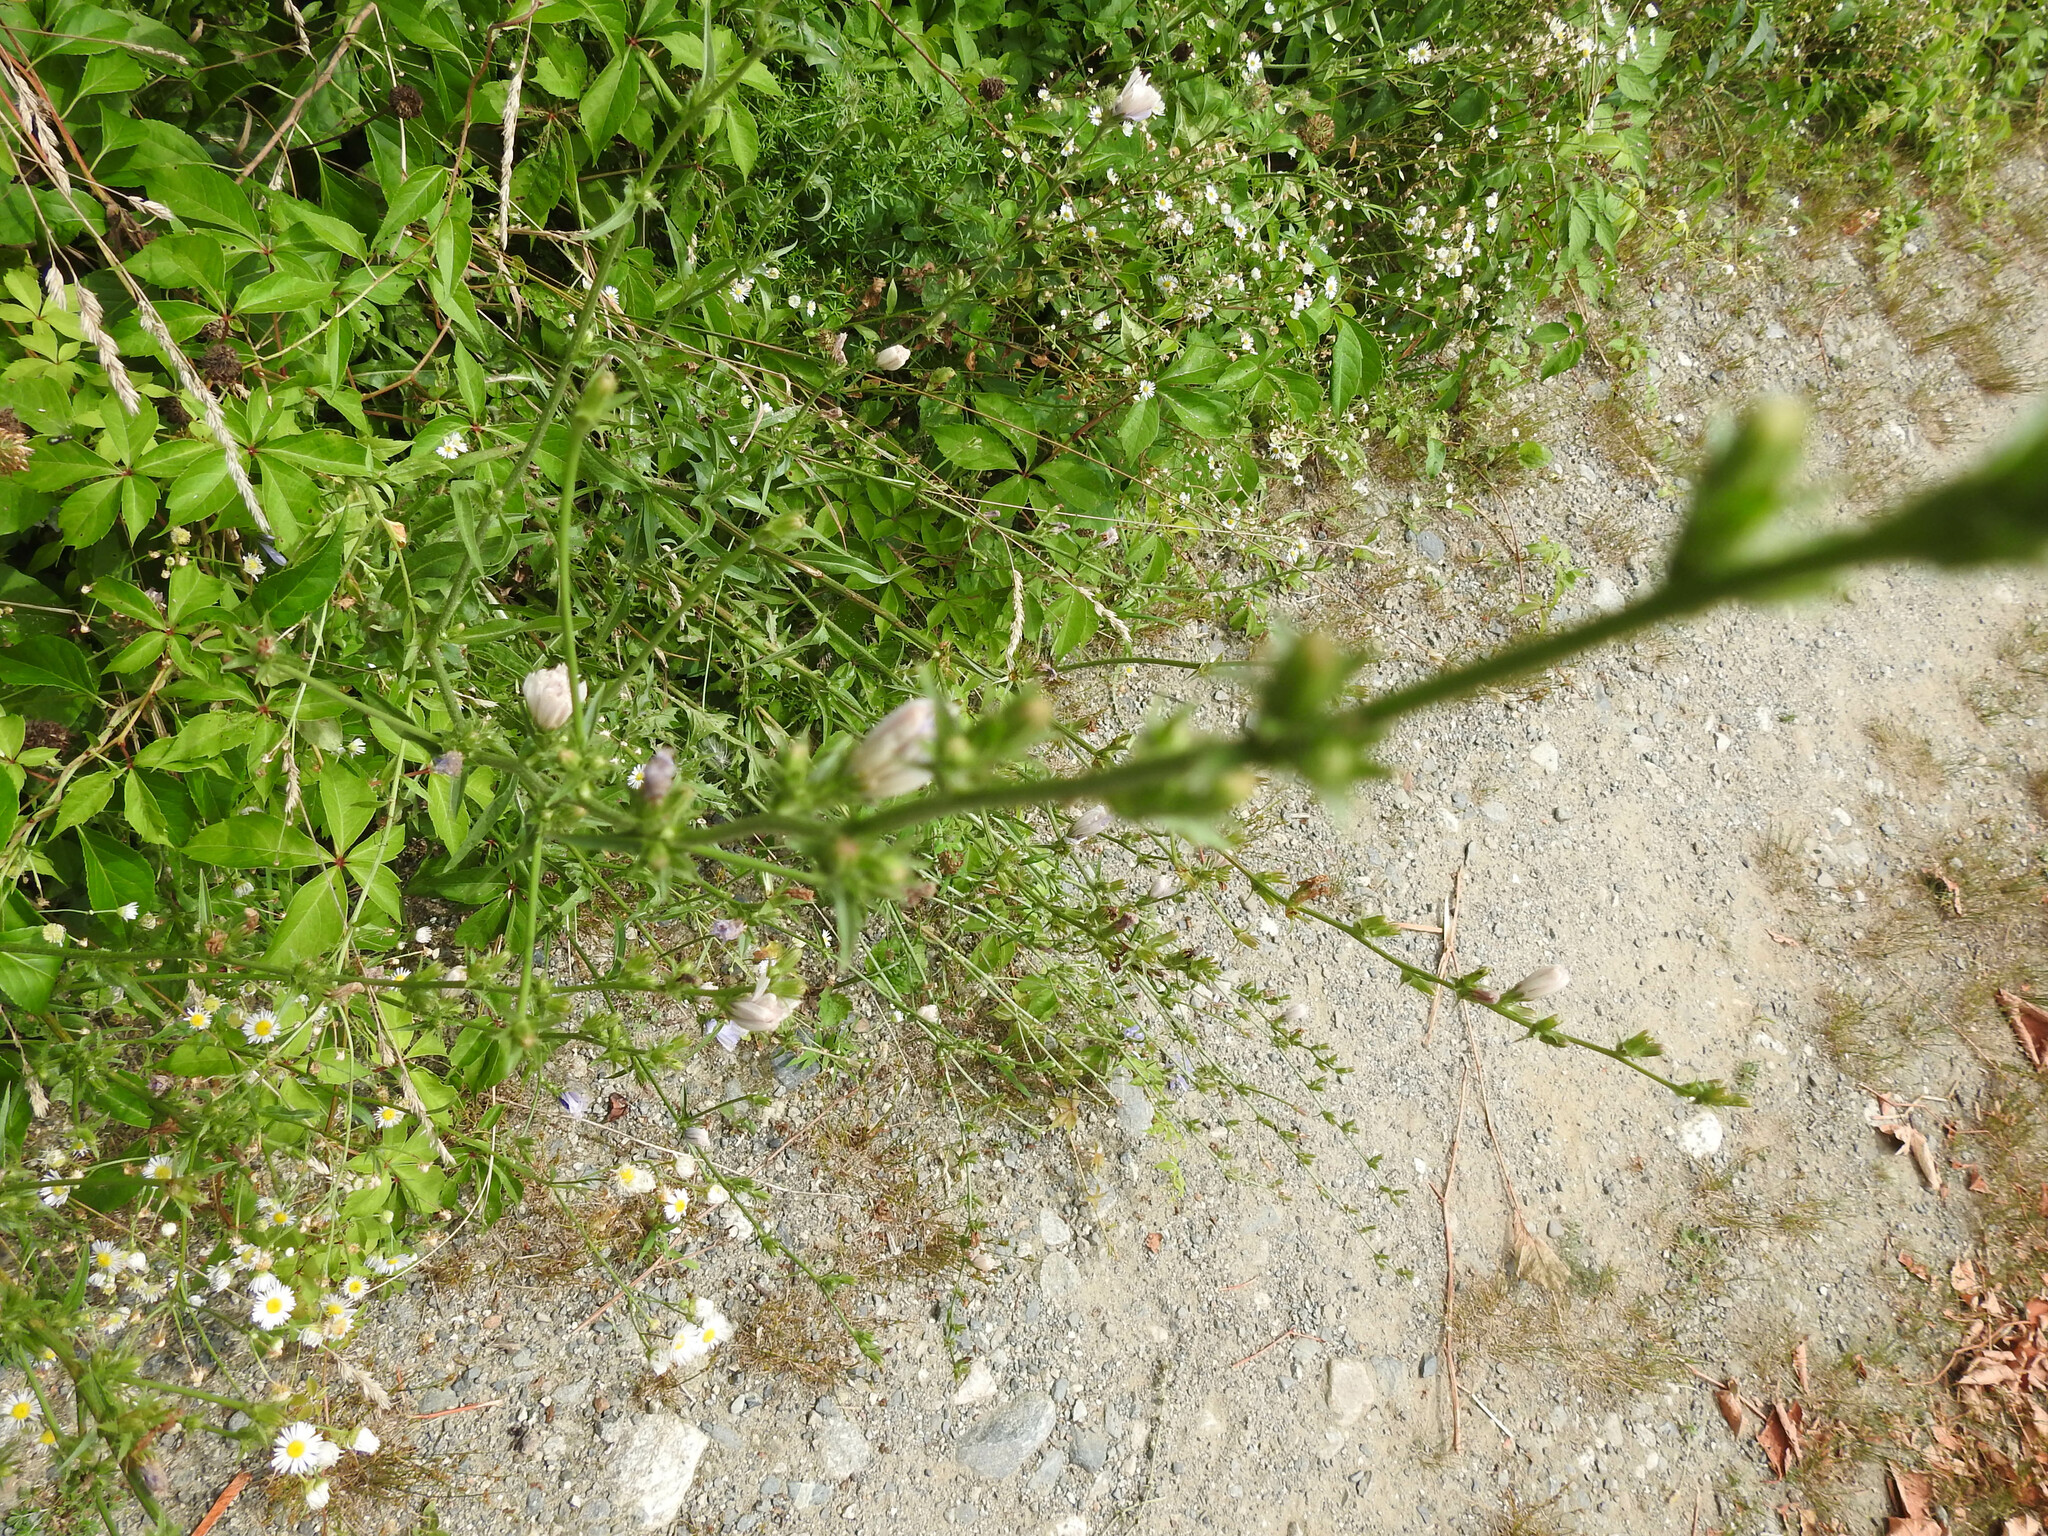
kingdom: Plantae
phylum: Tracheophyta
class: Magnoliopsida
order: Asterales
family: Asteraceae
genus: Cichorium
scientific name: Cichorium intybus
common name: Chicory
